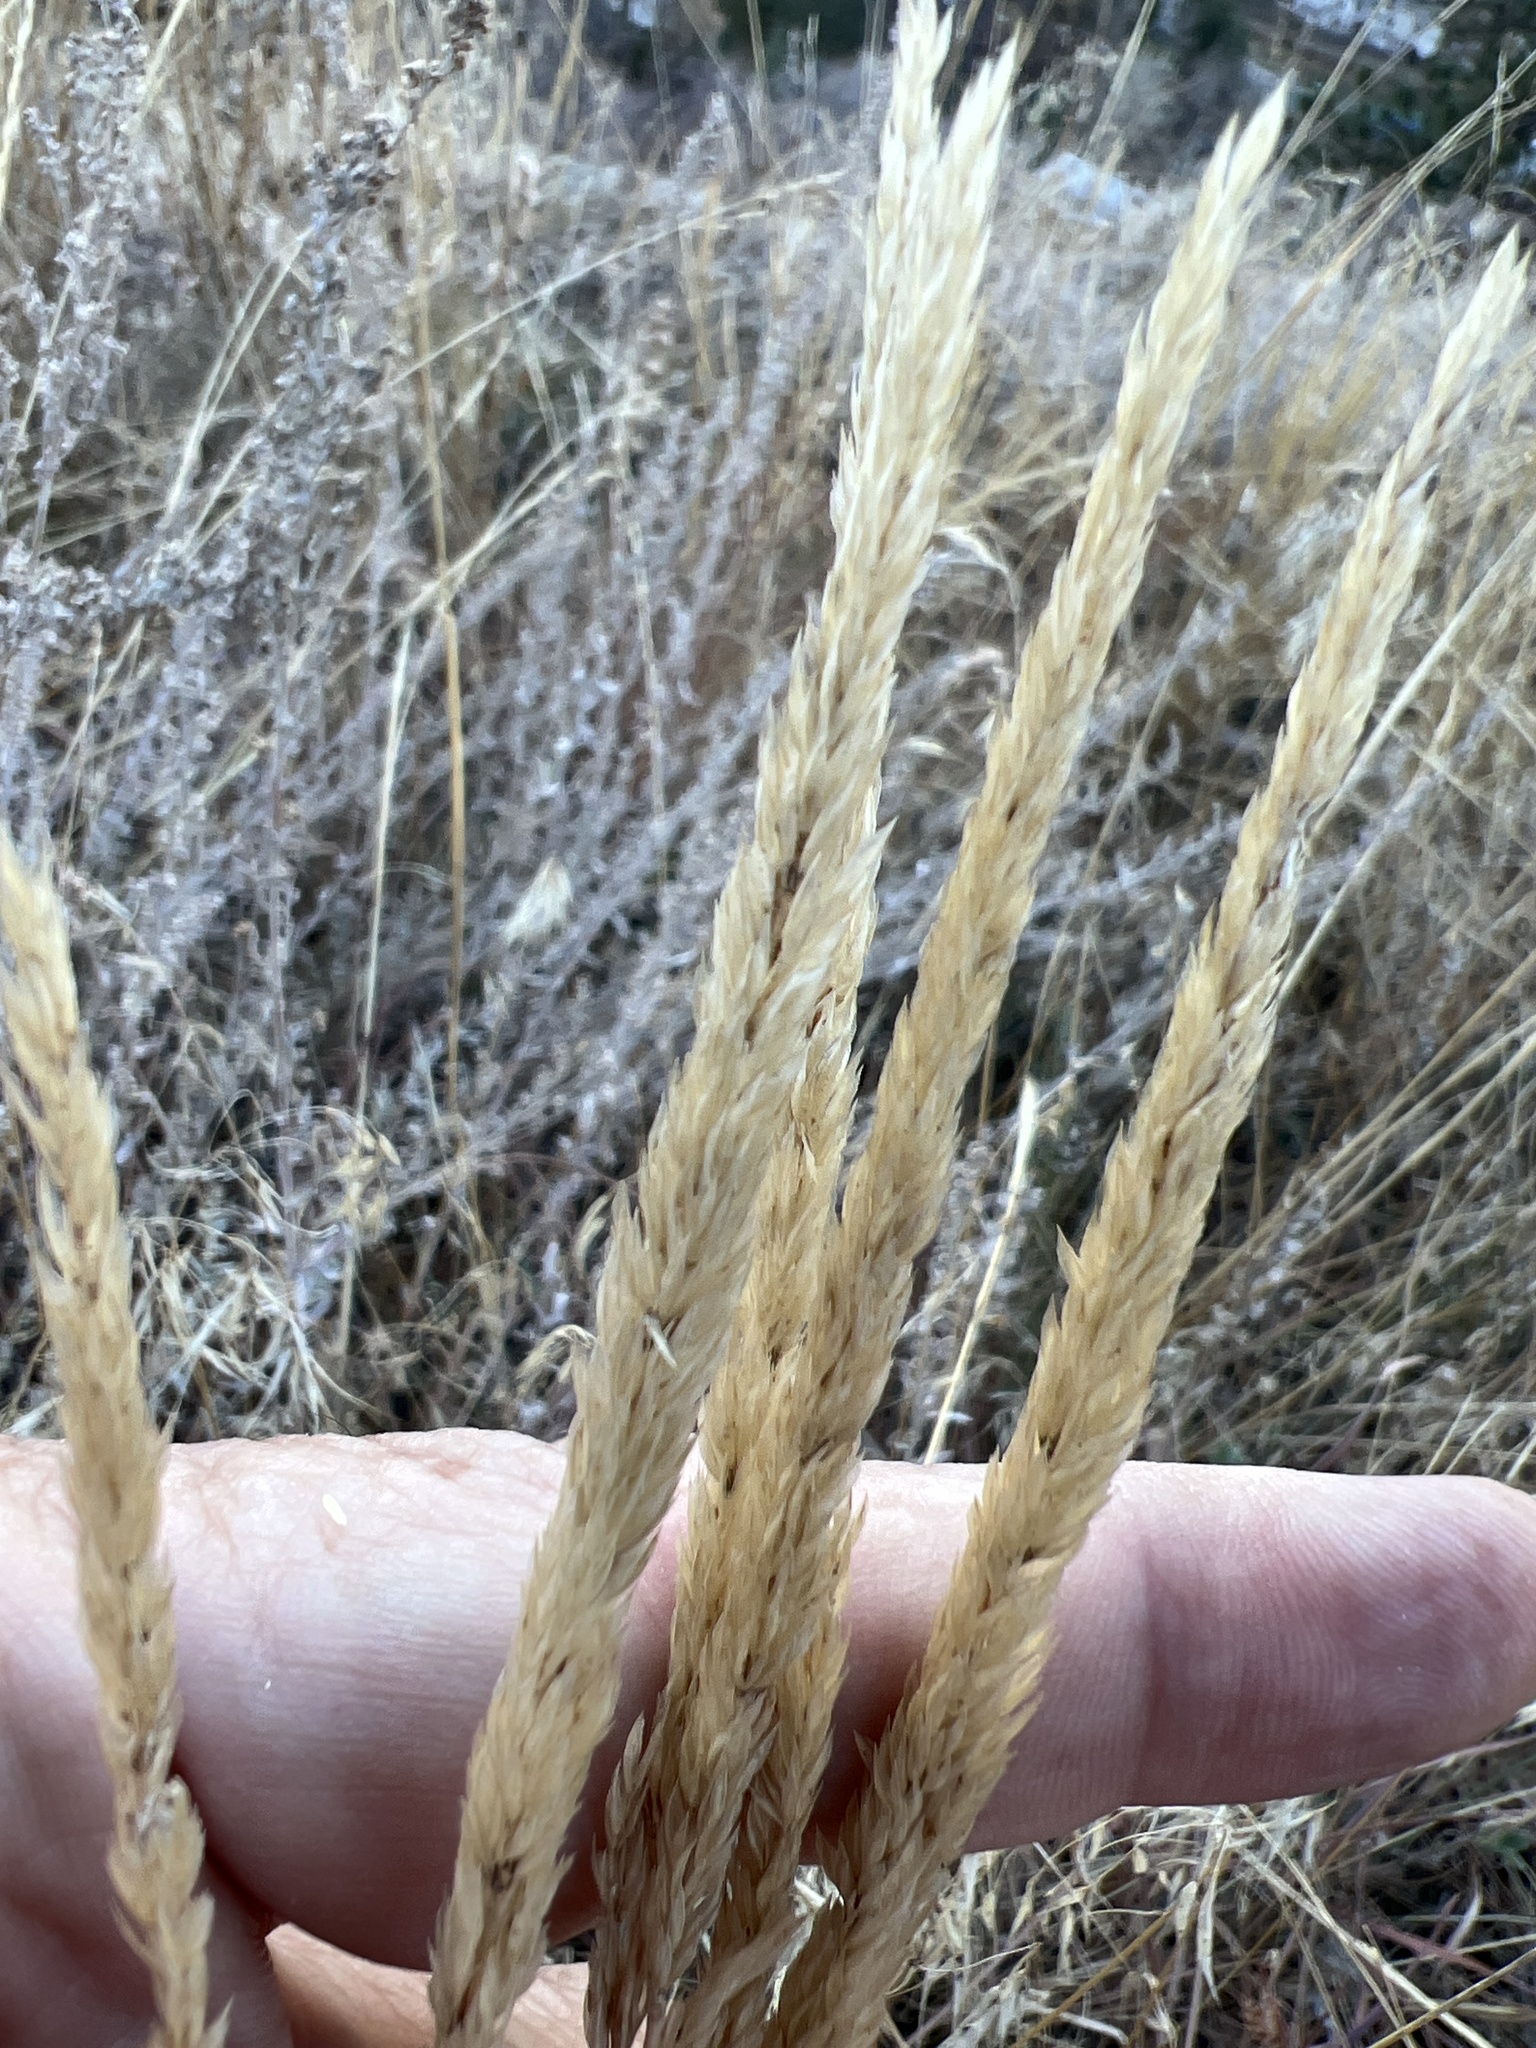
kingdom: Plantae
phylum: Tracheophyta
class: Liliopsida
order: Poales
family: Poaceae
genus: Koeleria
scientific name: Koeleria macrantha
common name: Crested hair-grass
